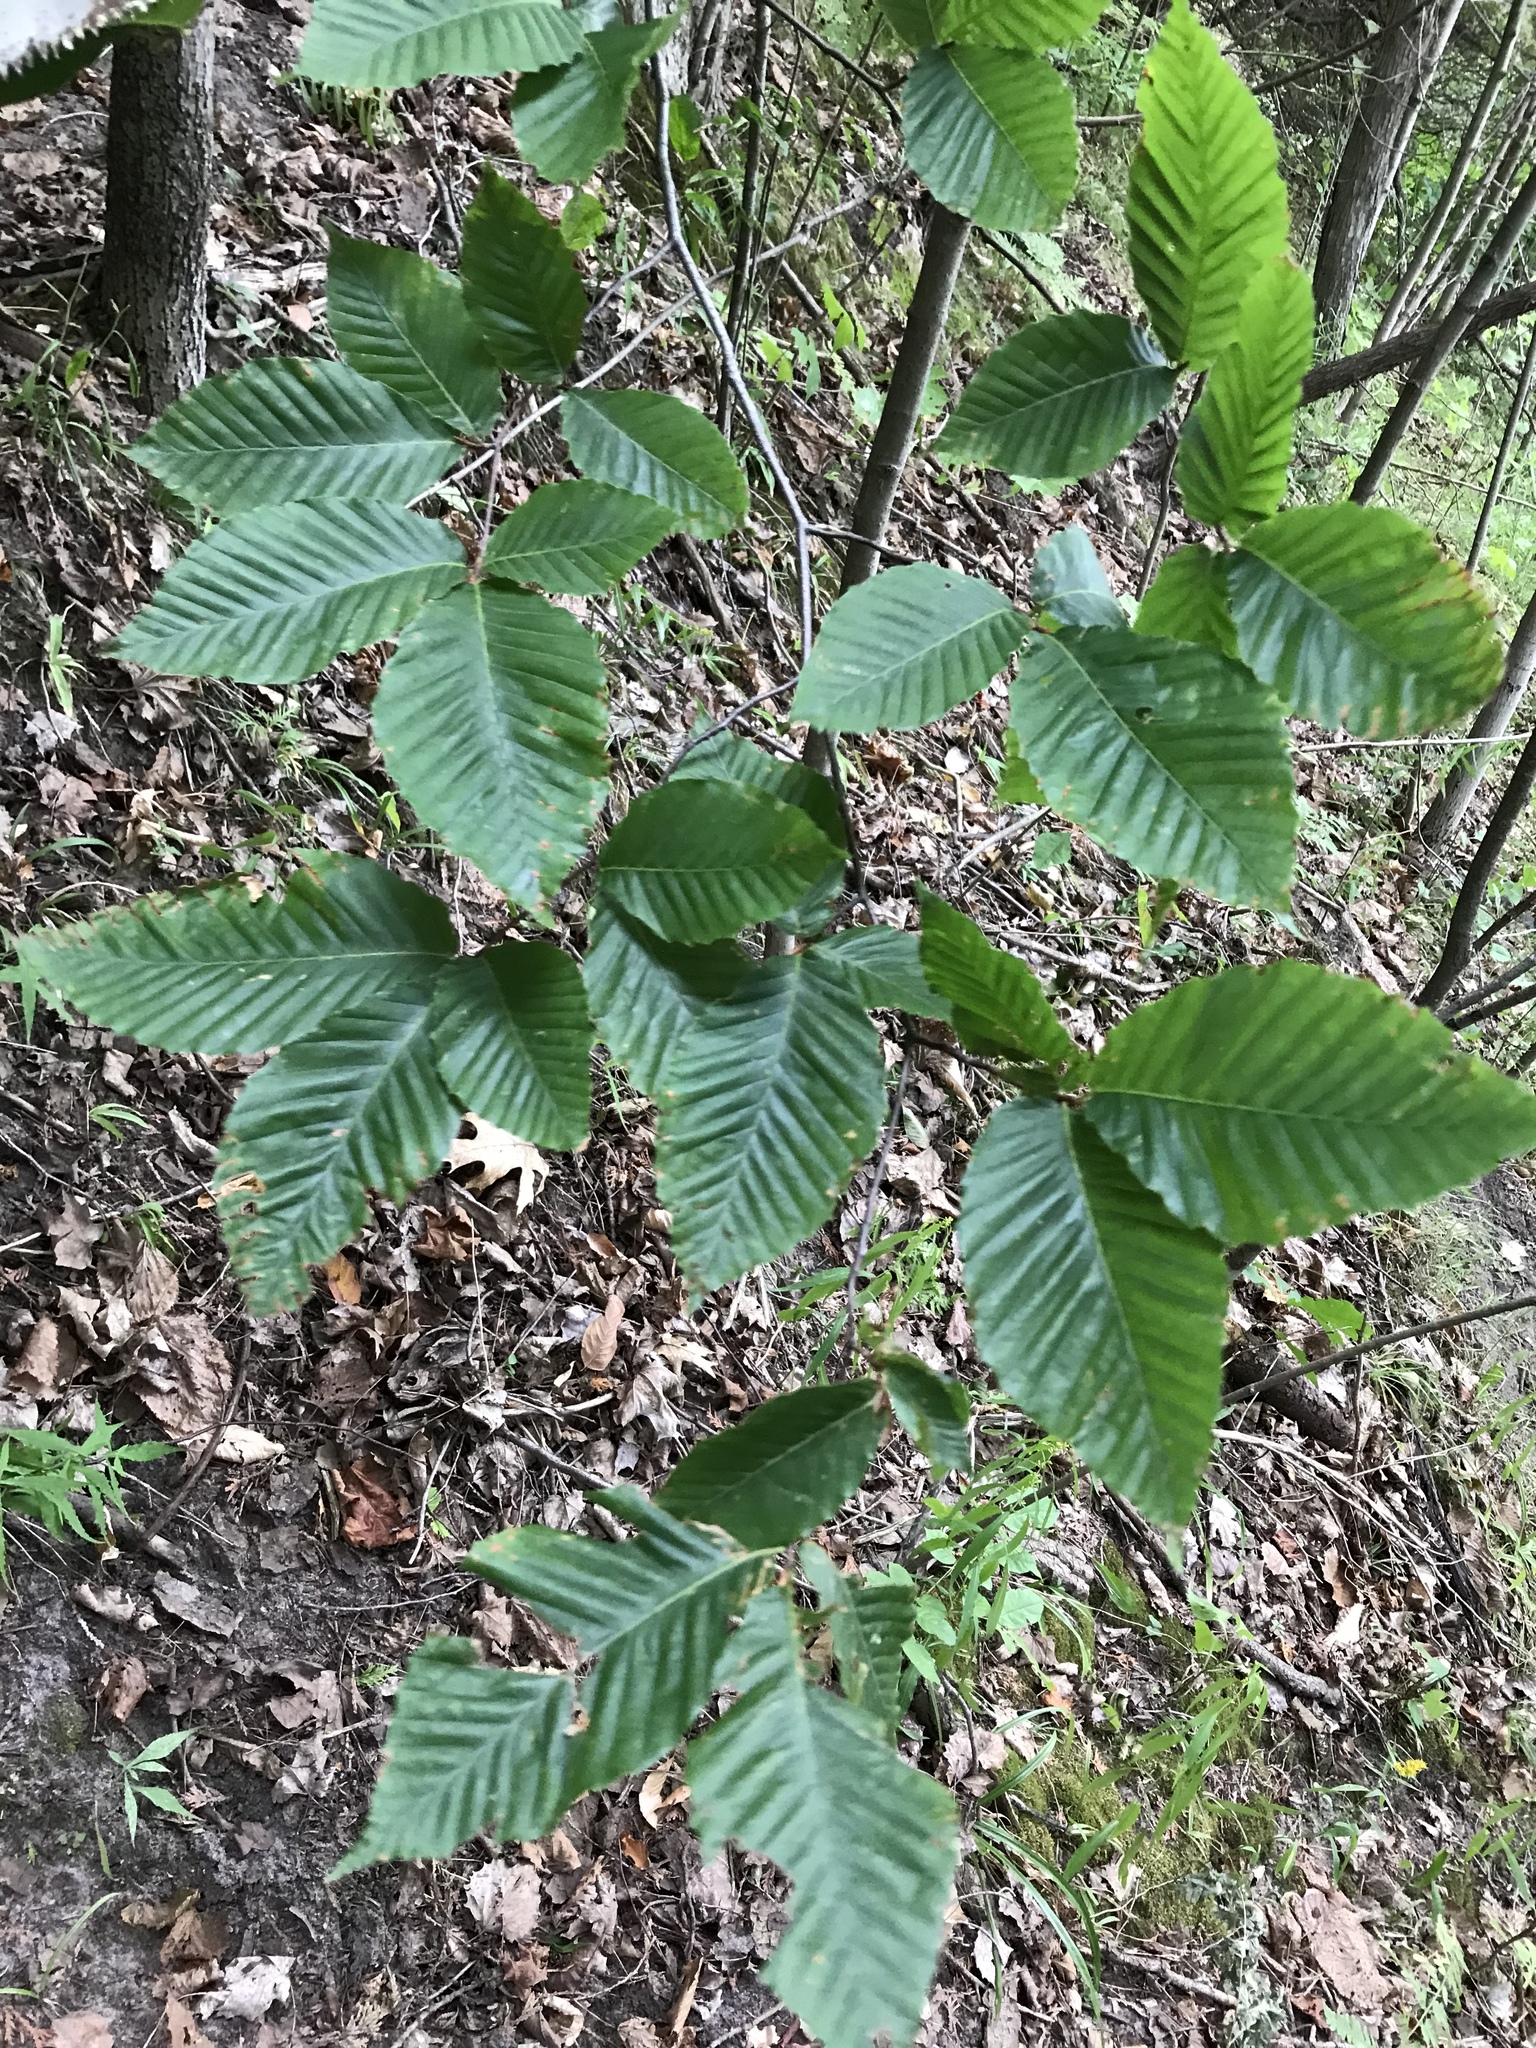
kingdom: Plantae
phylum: Tracheophyta
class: Magnoliopsida
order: Fagales
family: Fagaceae
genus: Fagus
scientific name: Fagus grandifolia
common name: American beech
